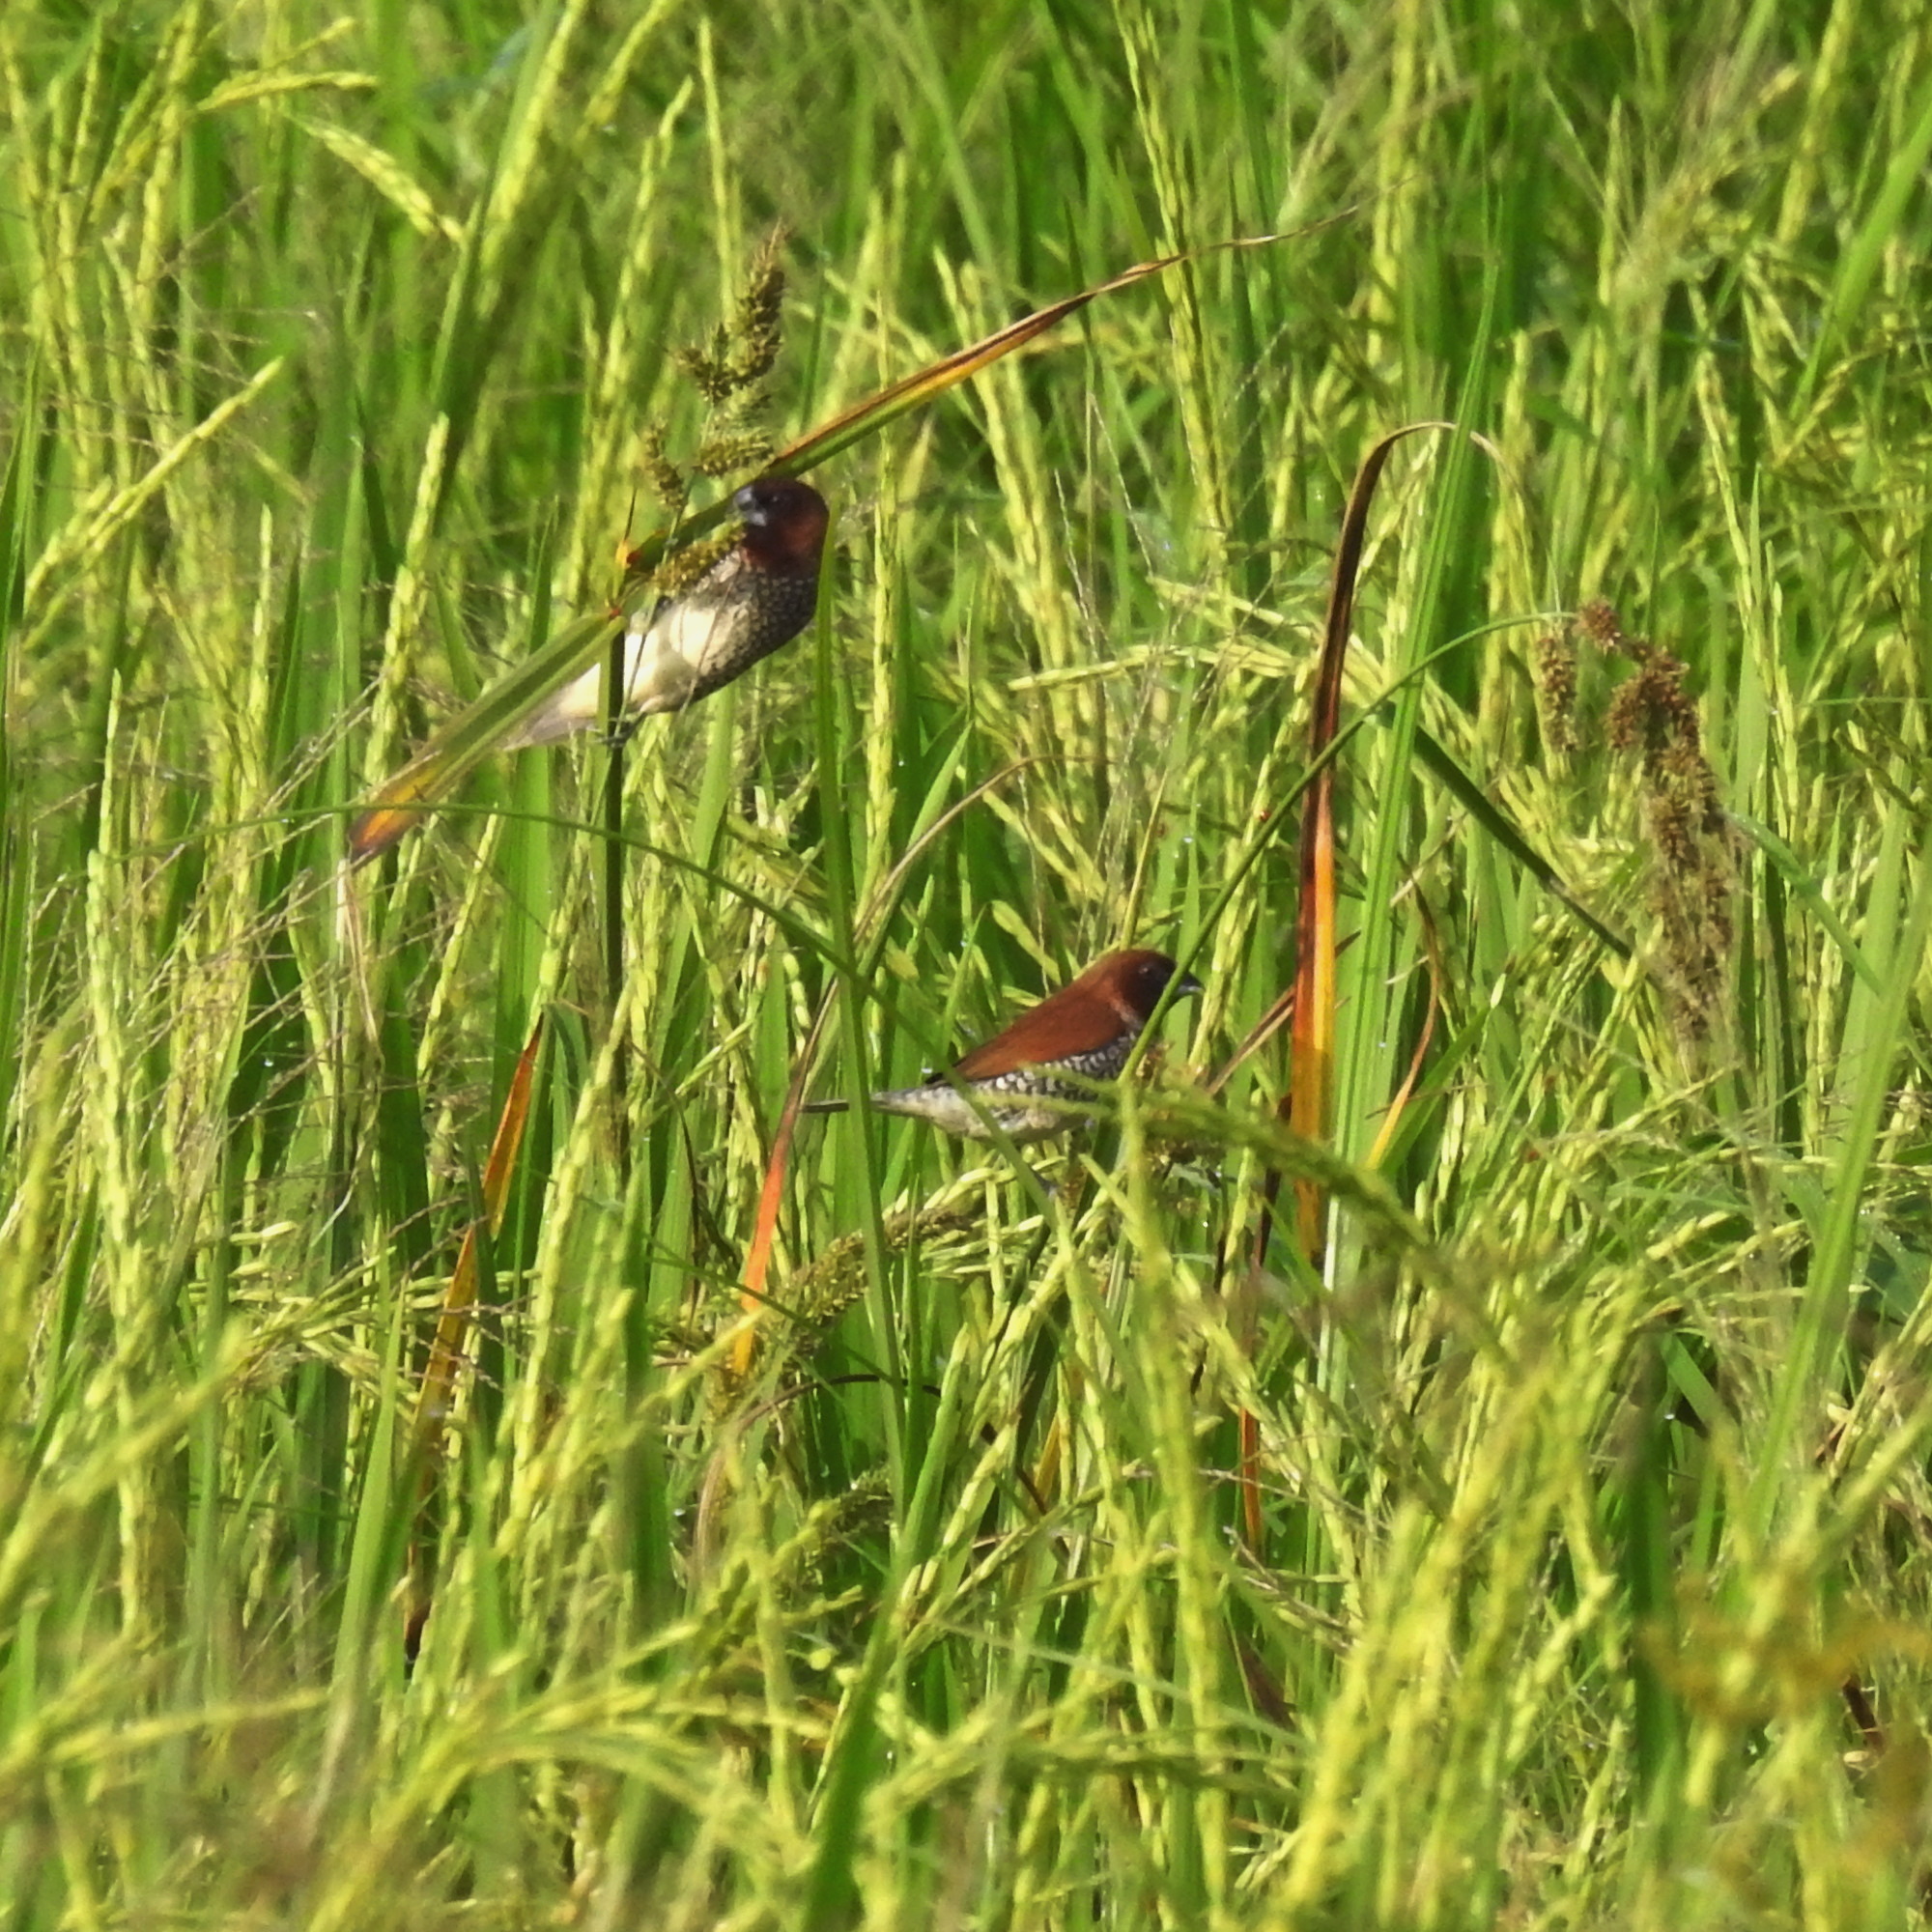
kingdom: Animalia
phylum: Chordata
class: Aves
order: Passeriformes
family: Estrildidae
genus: Lonchura
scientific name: Lonchura punctulata
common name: Scaly-breasted munia
